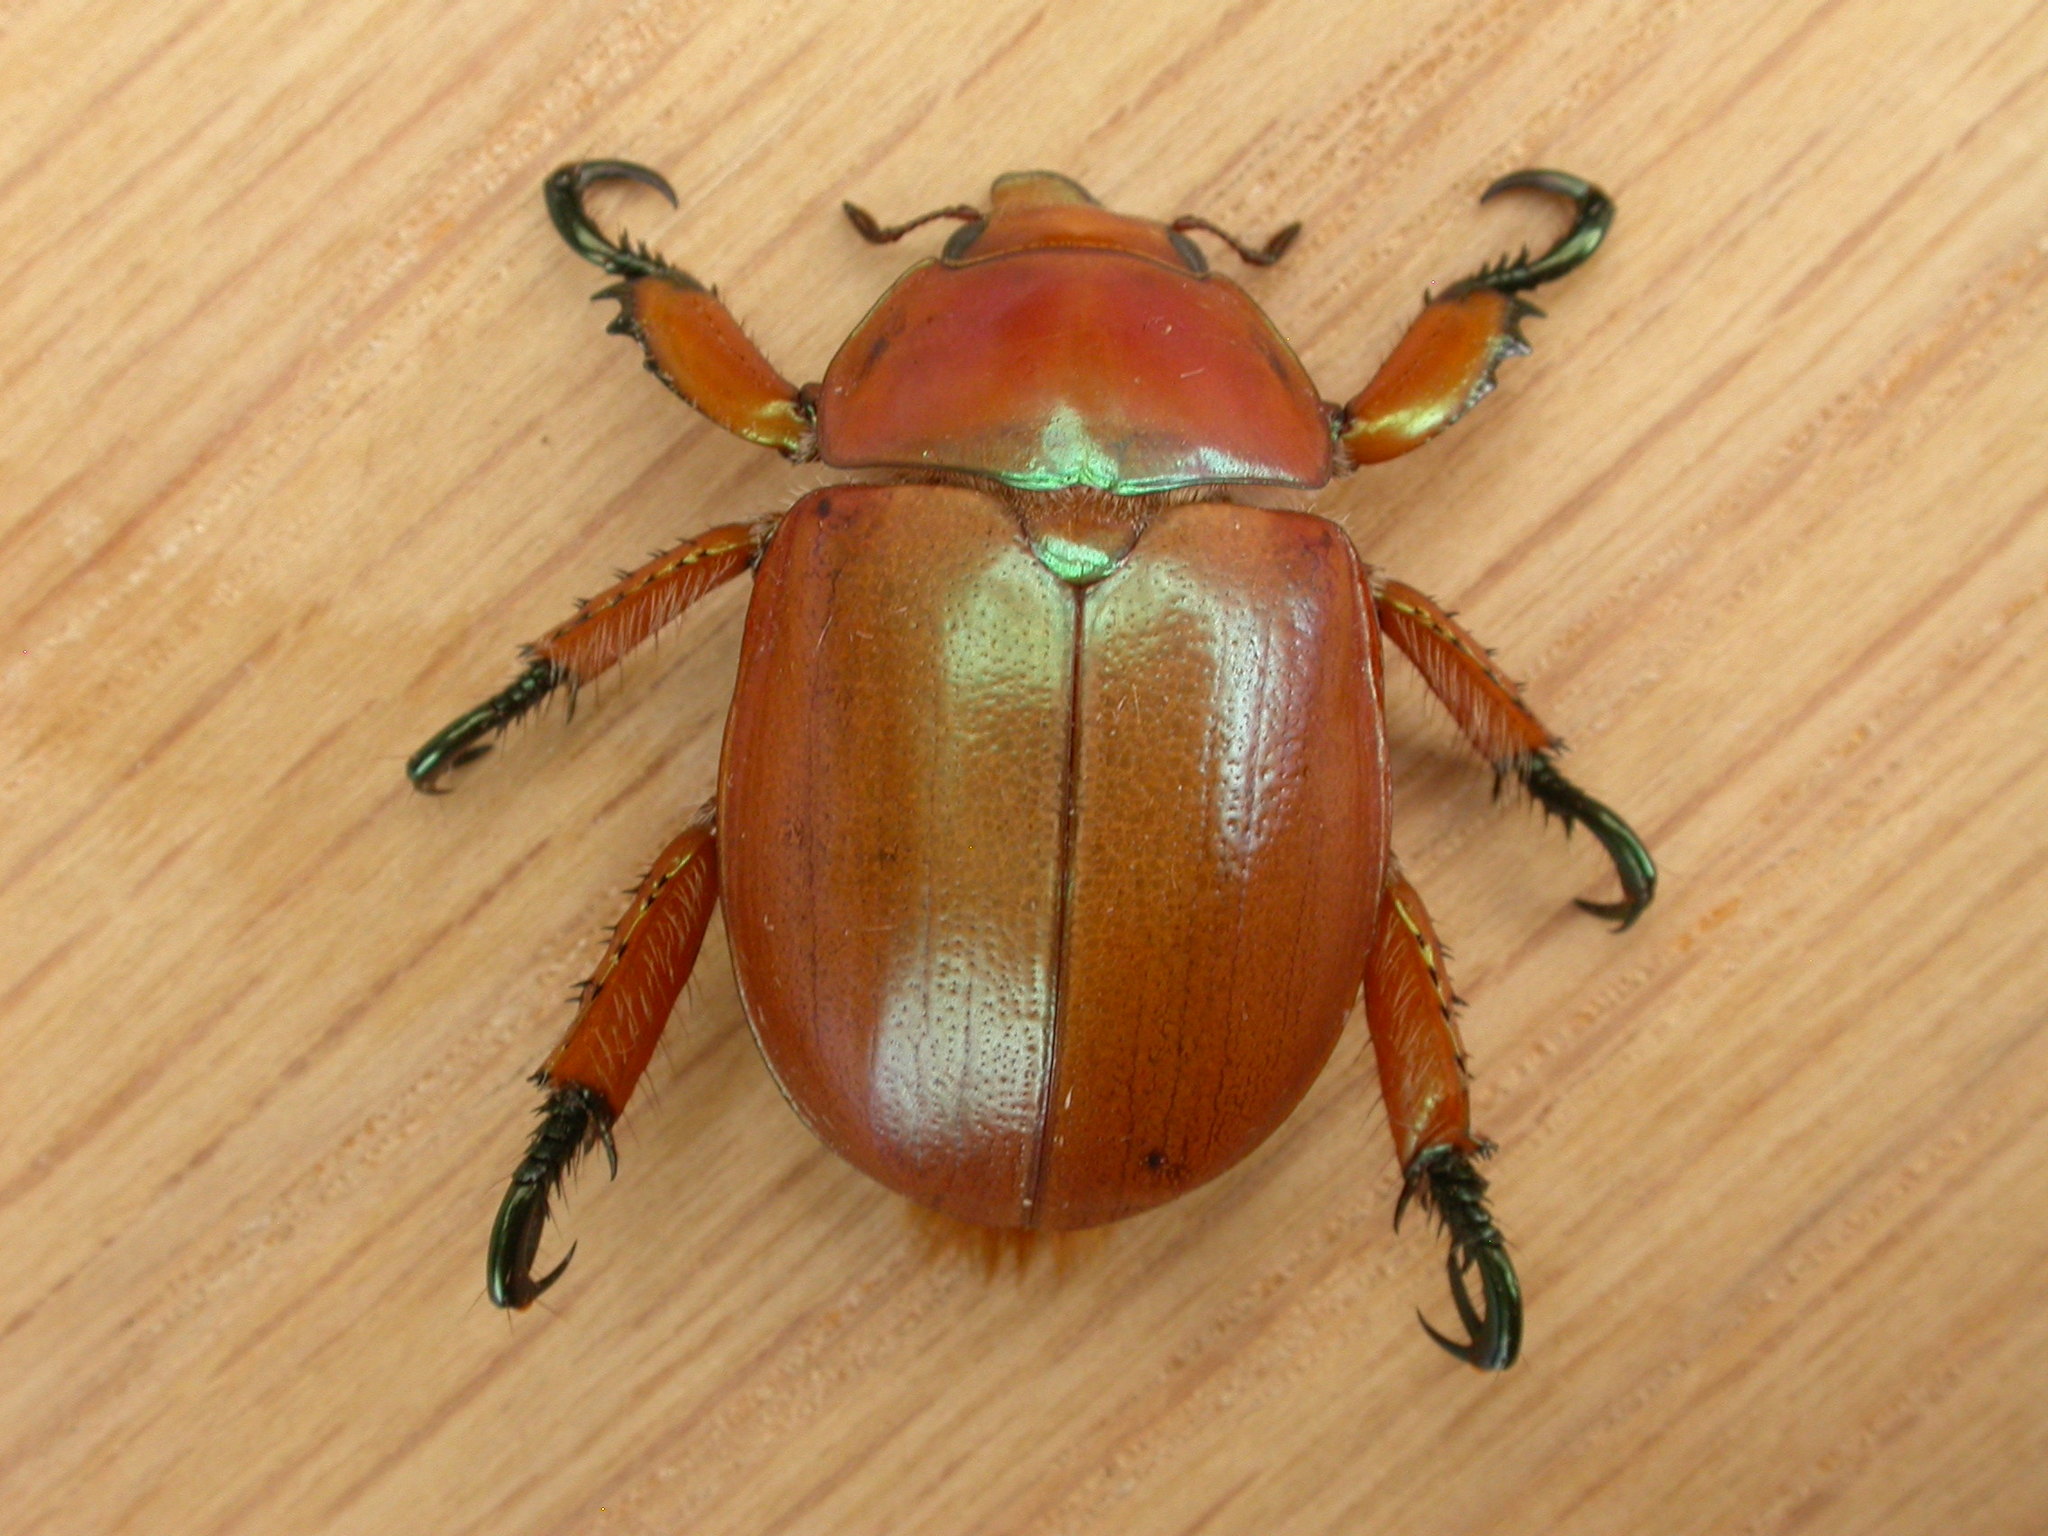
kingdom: Animalia
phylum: Arthropoda
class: Insecta
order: Coleoptera
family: Scarabaeidae
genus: Anoplognathus
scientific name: Anoplognathus viriditarsis
